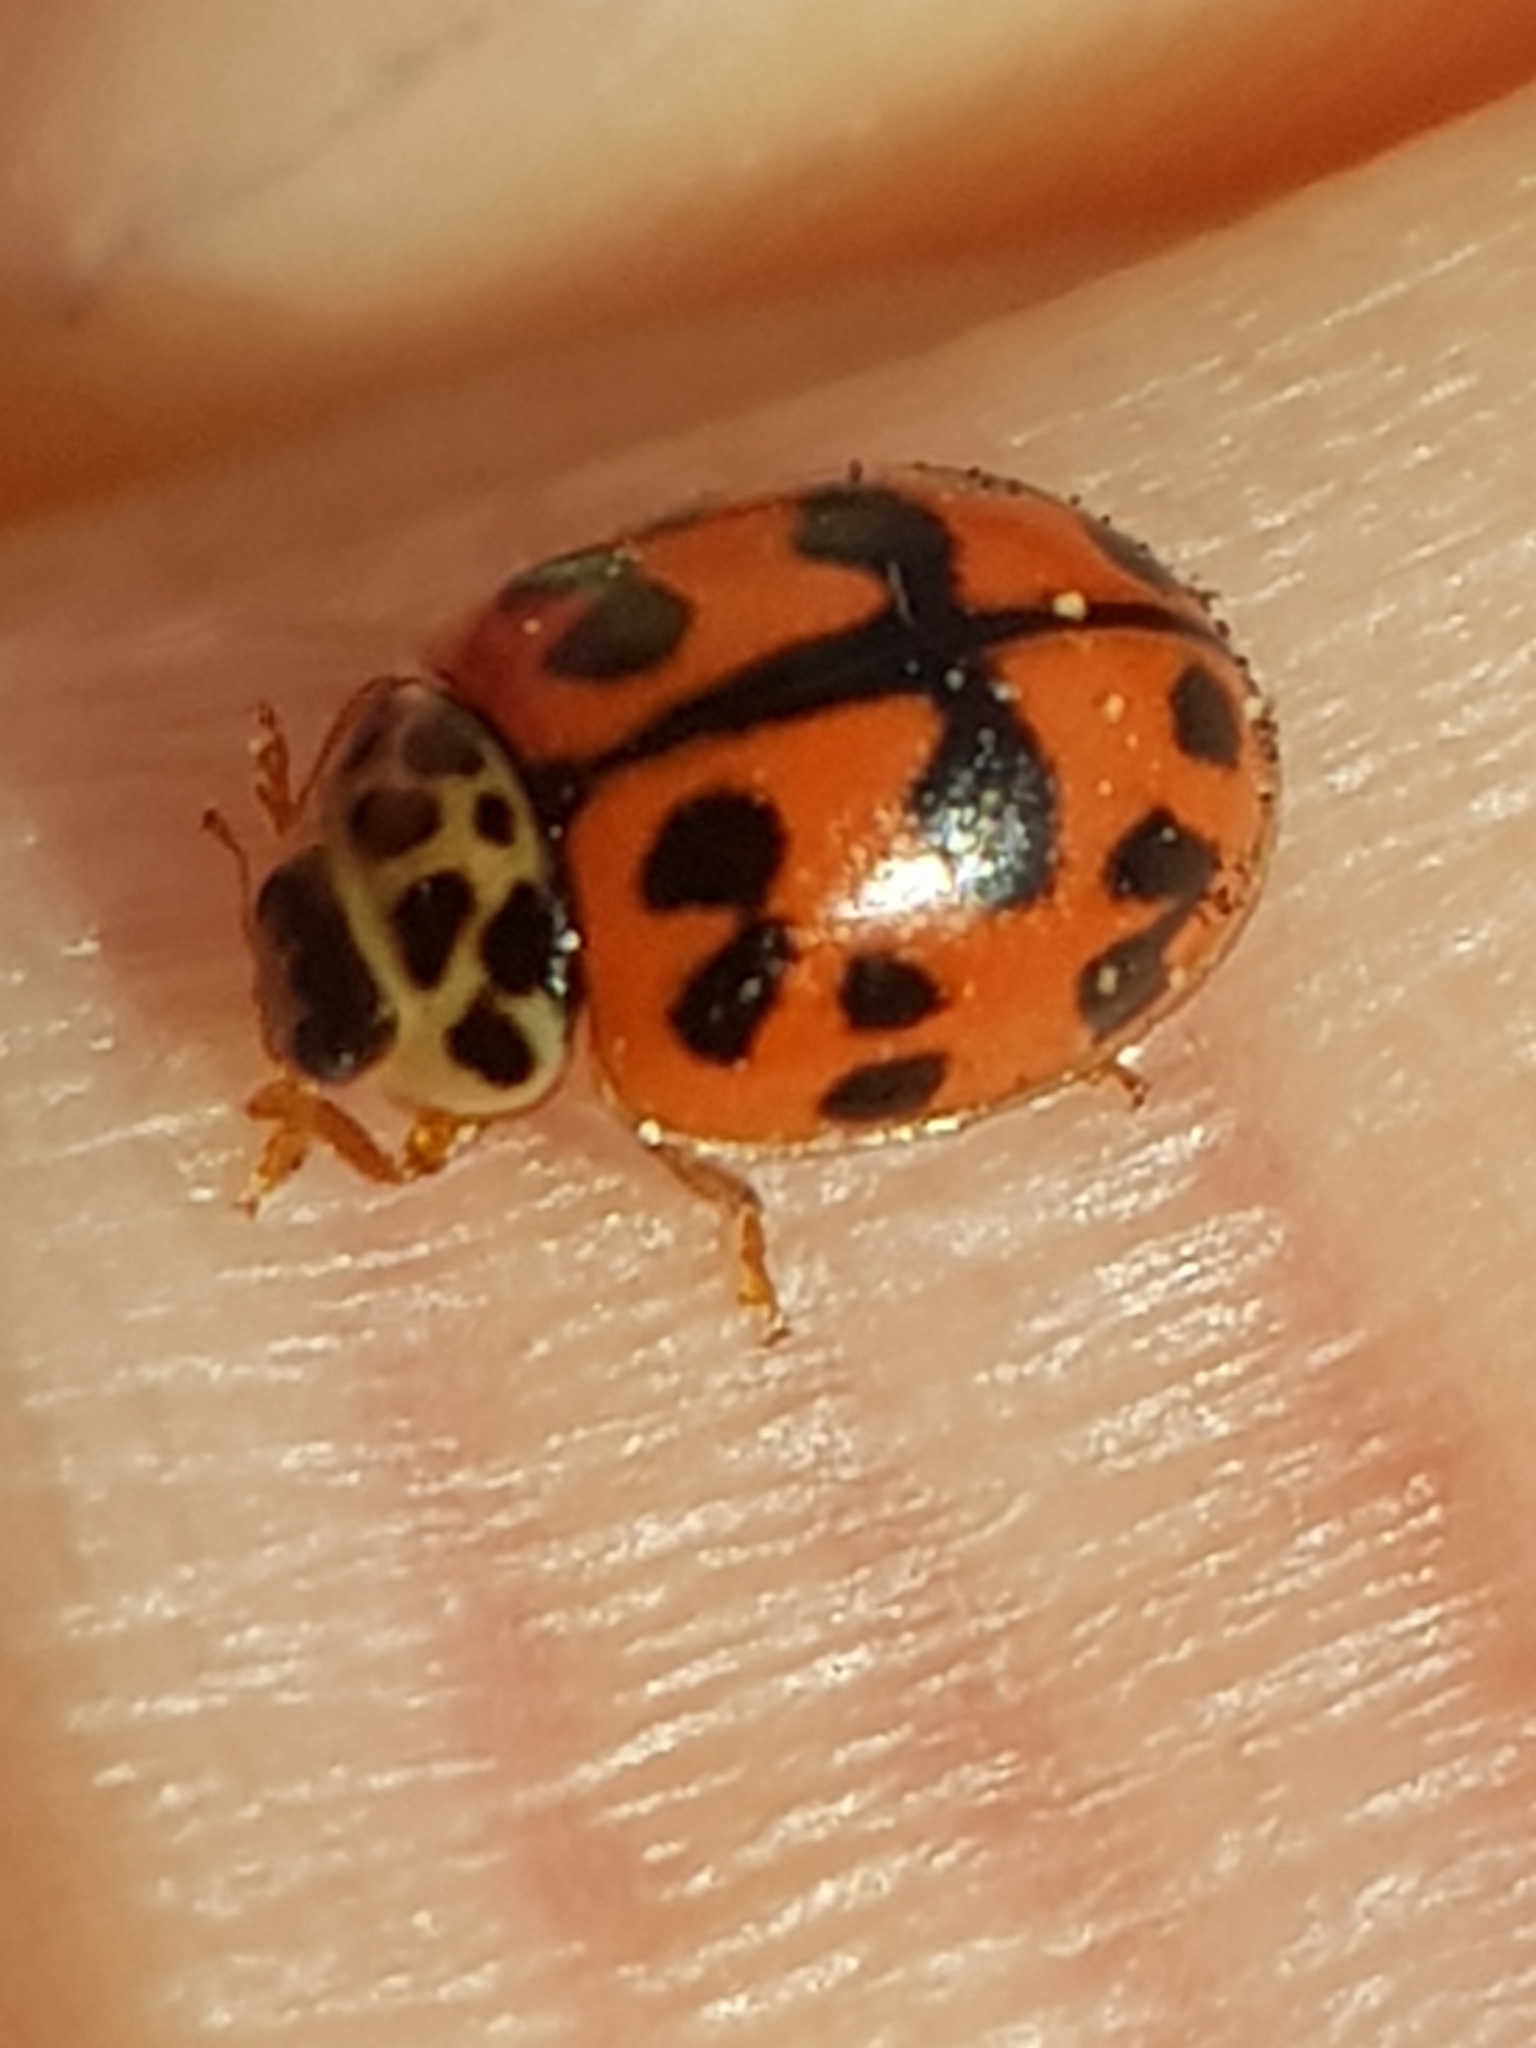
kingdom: Animalia
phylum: Arthropoda
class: Insecta
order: Coleoptera
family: Coccinellidae
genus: Oenopia
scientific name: Oenopia conglobata
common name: Ladybird beetle
